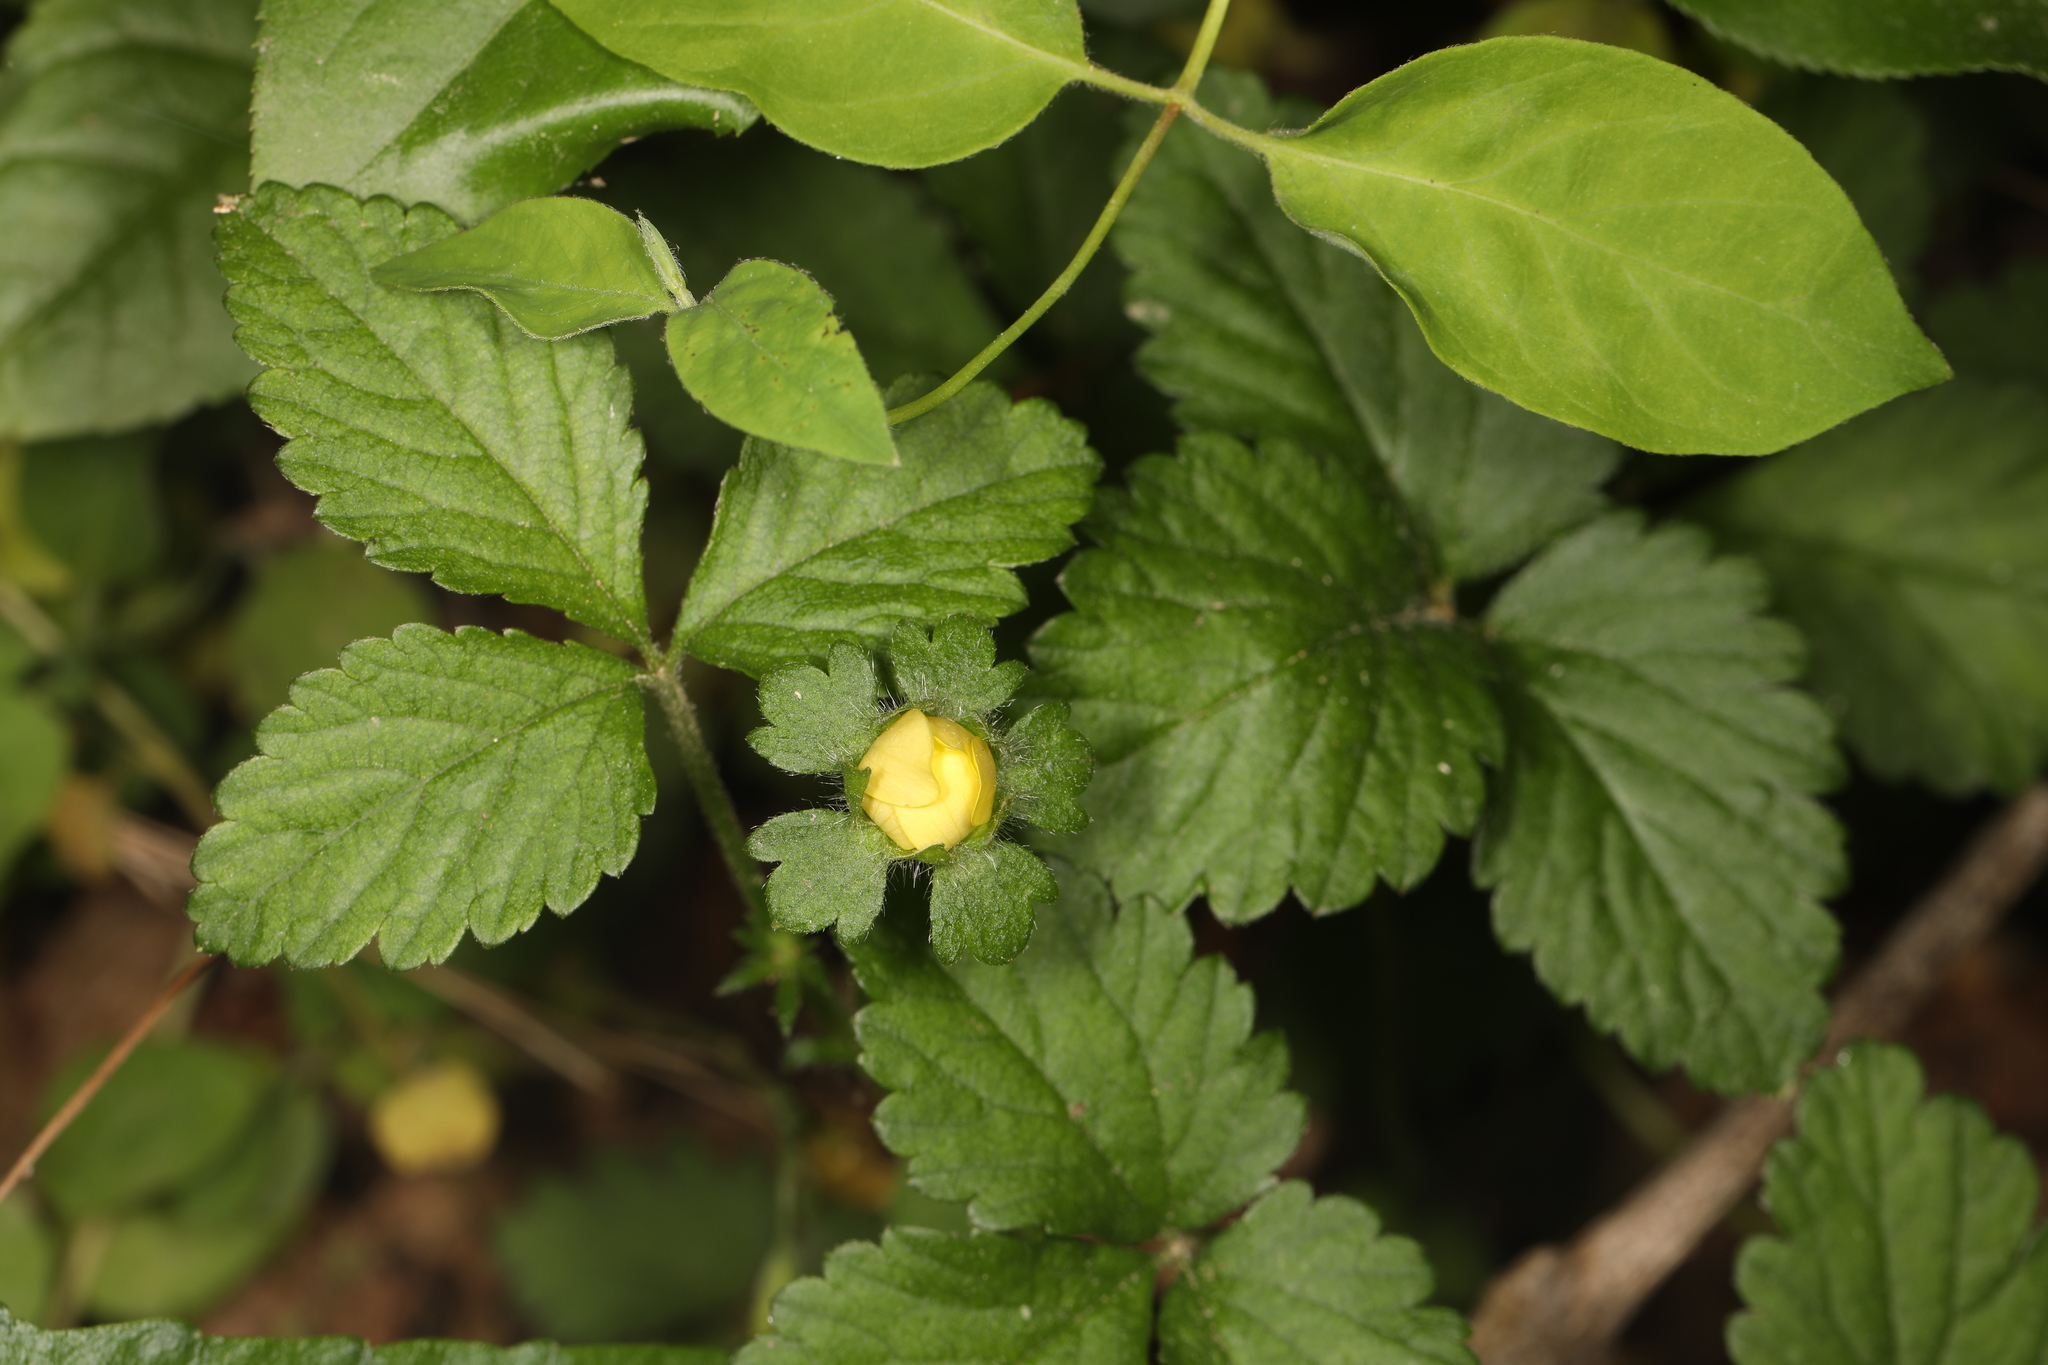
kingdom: Plantae
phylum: Tracheophyta
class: Magnoliopsida
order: Rosales
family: Rosaceae
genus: Potentilla
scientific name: Potentilla indica
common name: Yellow-flowered strawberry
